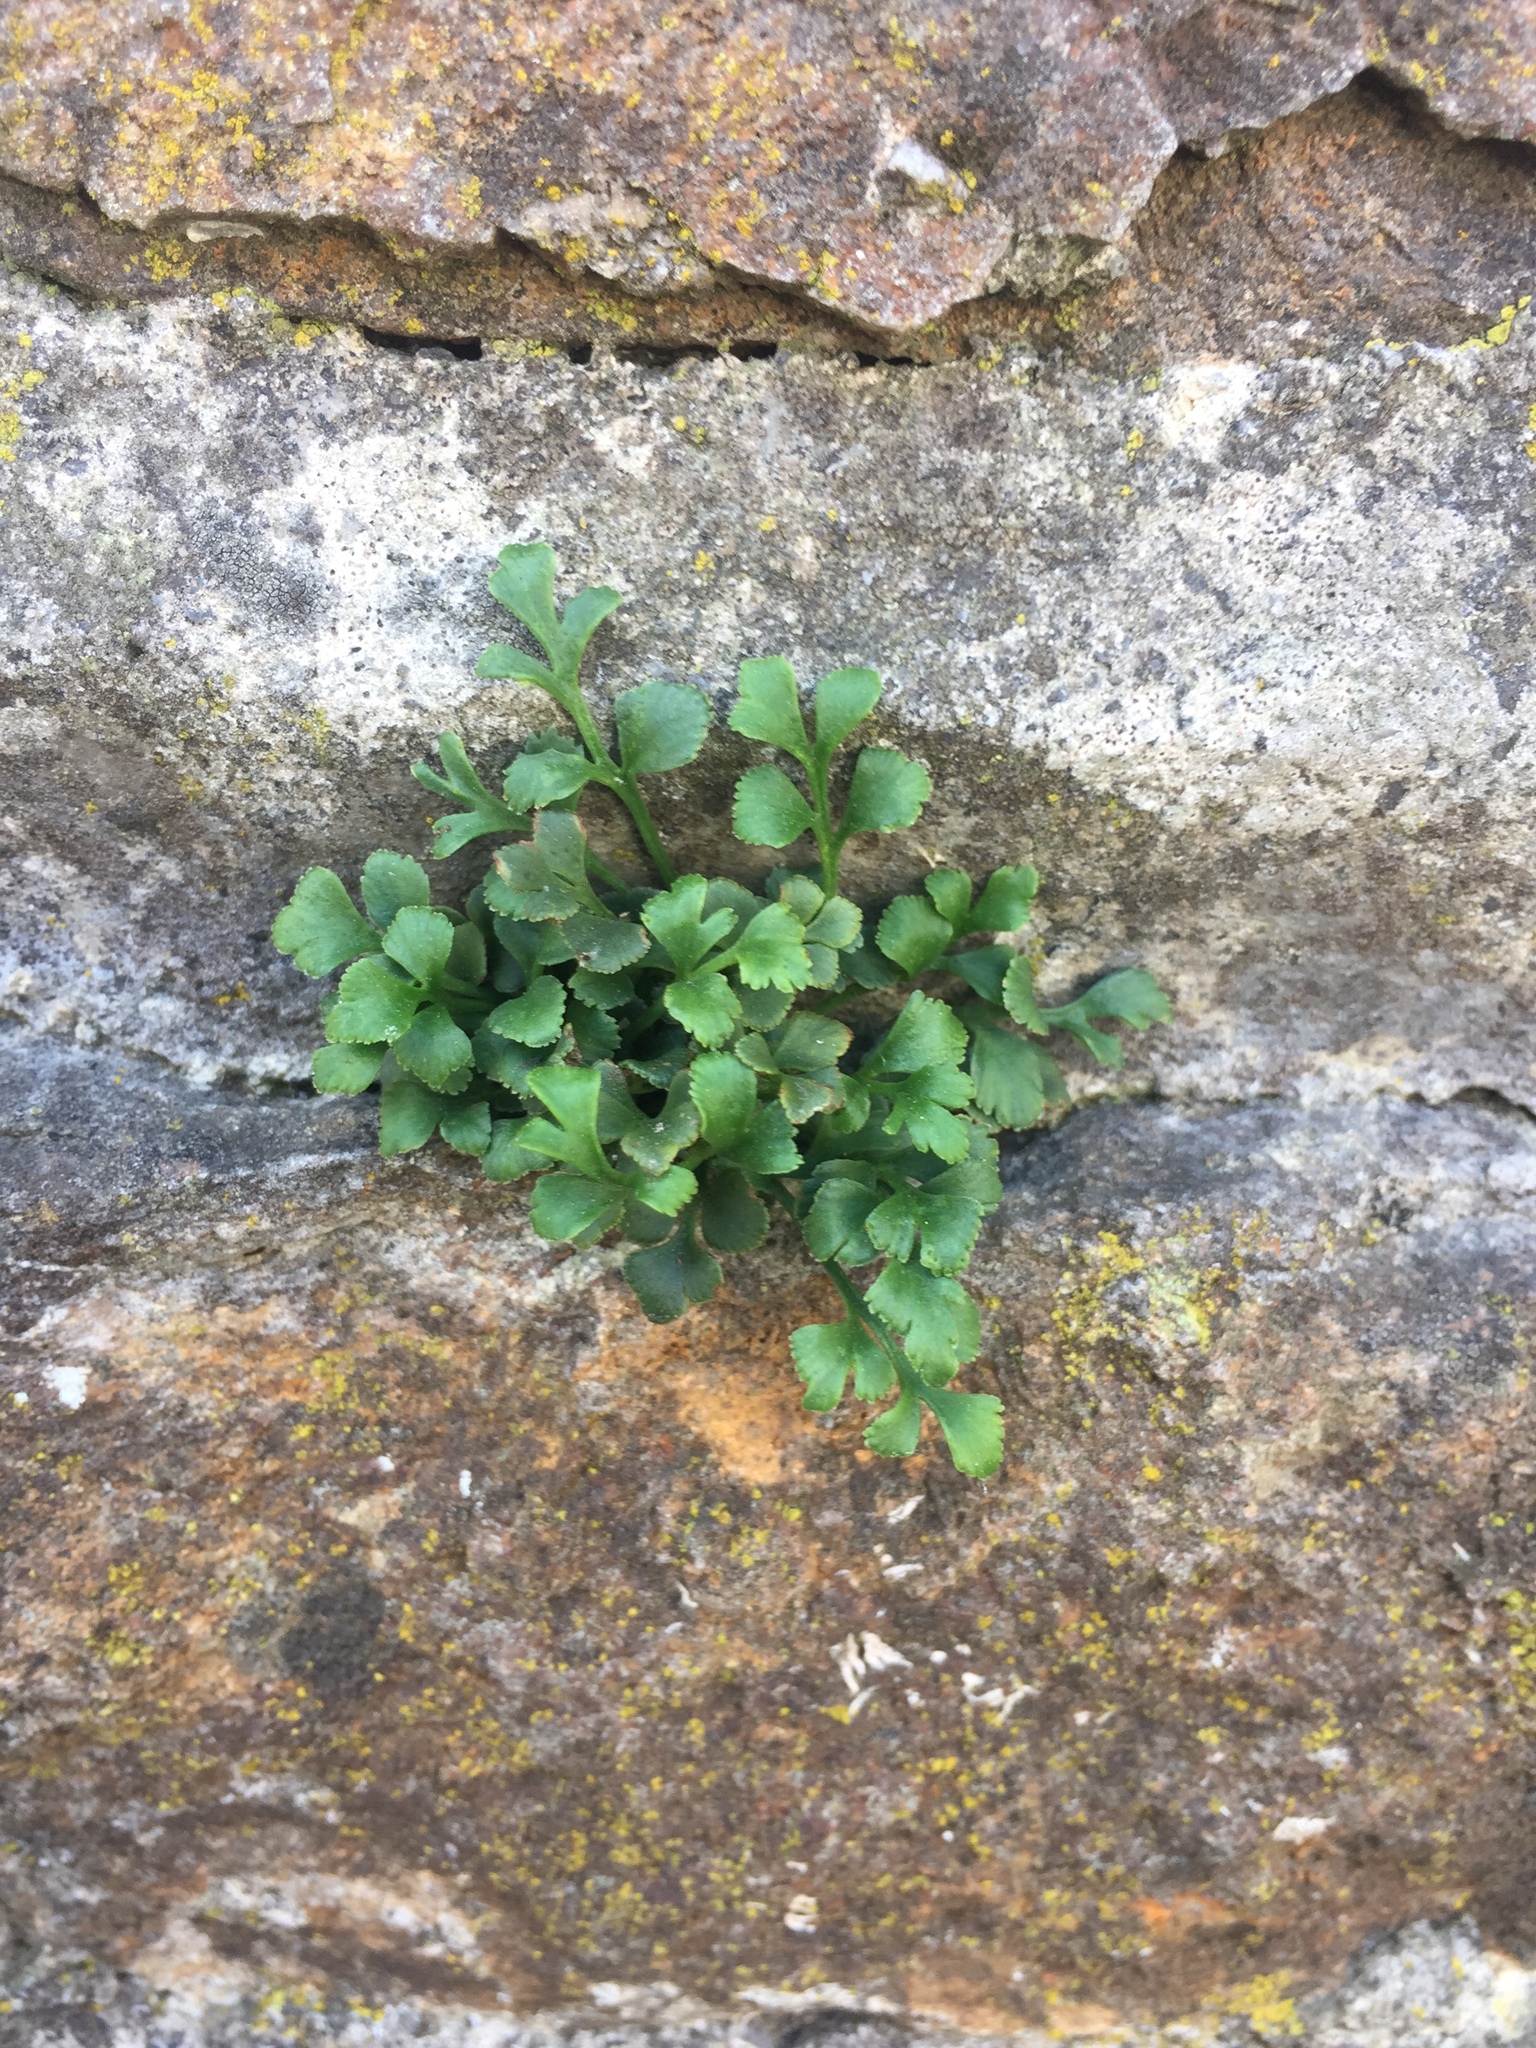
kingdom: Plantae
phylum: Tracheophyta
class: Polypodiopsida
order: Polypodiales
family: Aspleniaceae
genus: Asplenium
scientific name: Asplenium ruta-muraria
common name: Wall-rue
